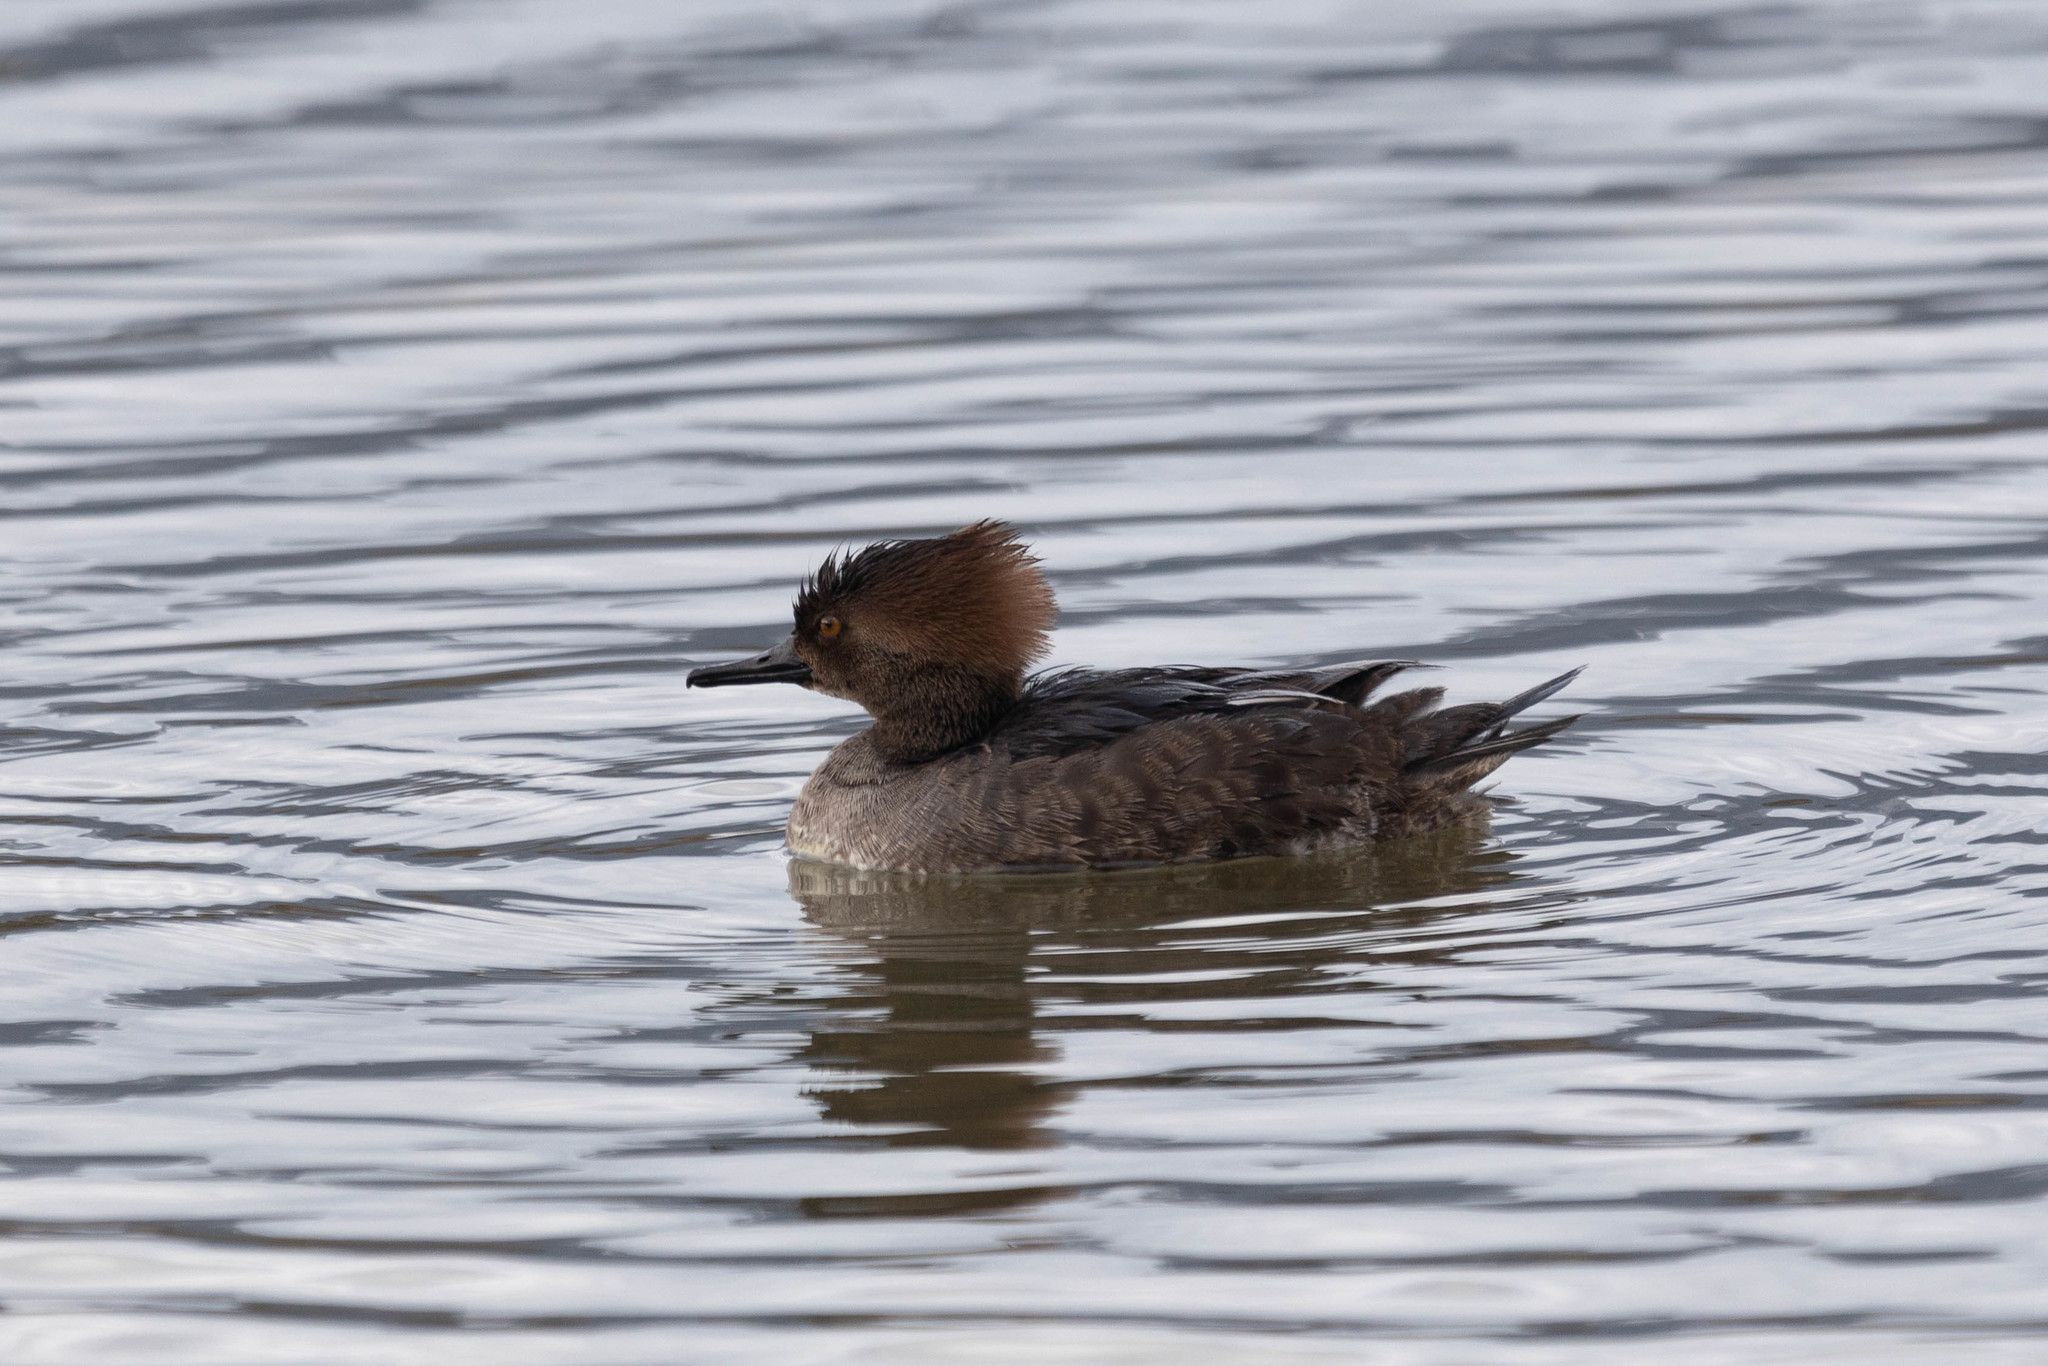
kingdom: Animalia
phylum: Chordata
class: Aves
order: Anseriformes
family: Anatidae
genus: Lophodytes
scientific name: Lophodytes cucullatus
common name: Hooded merganser
